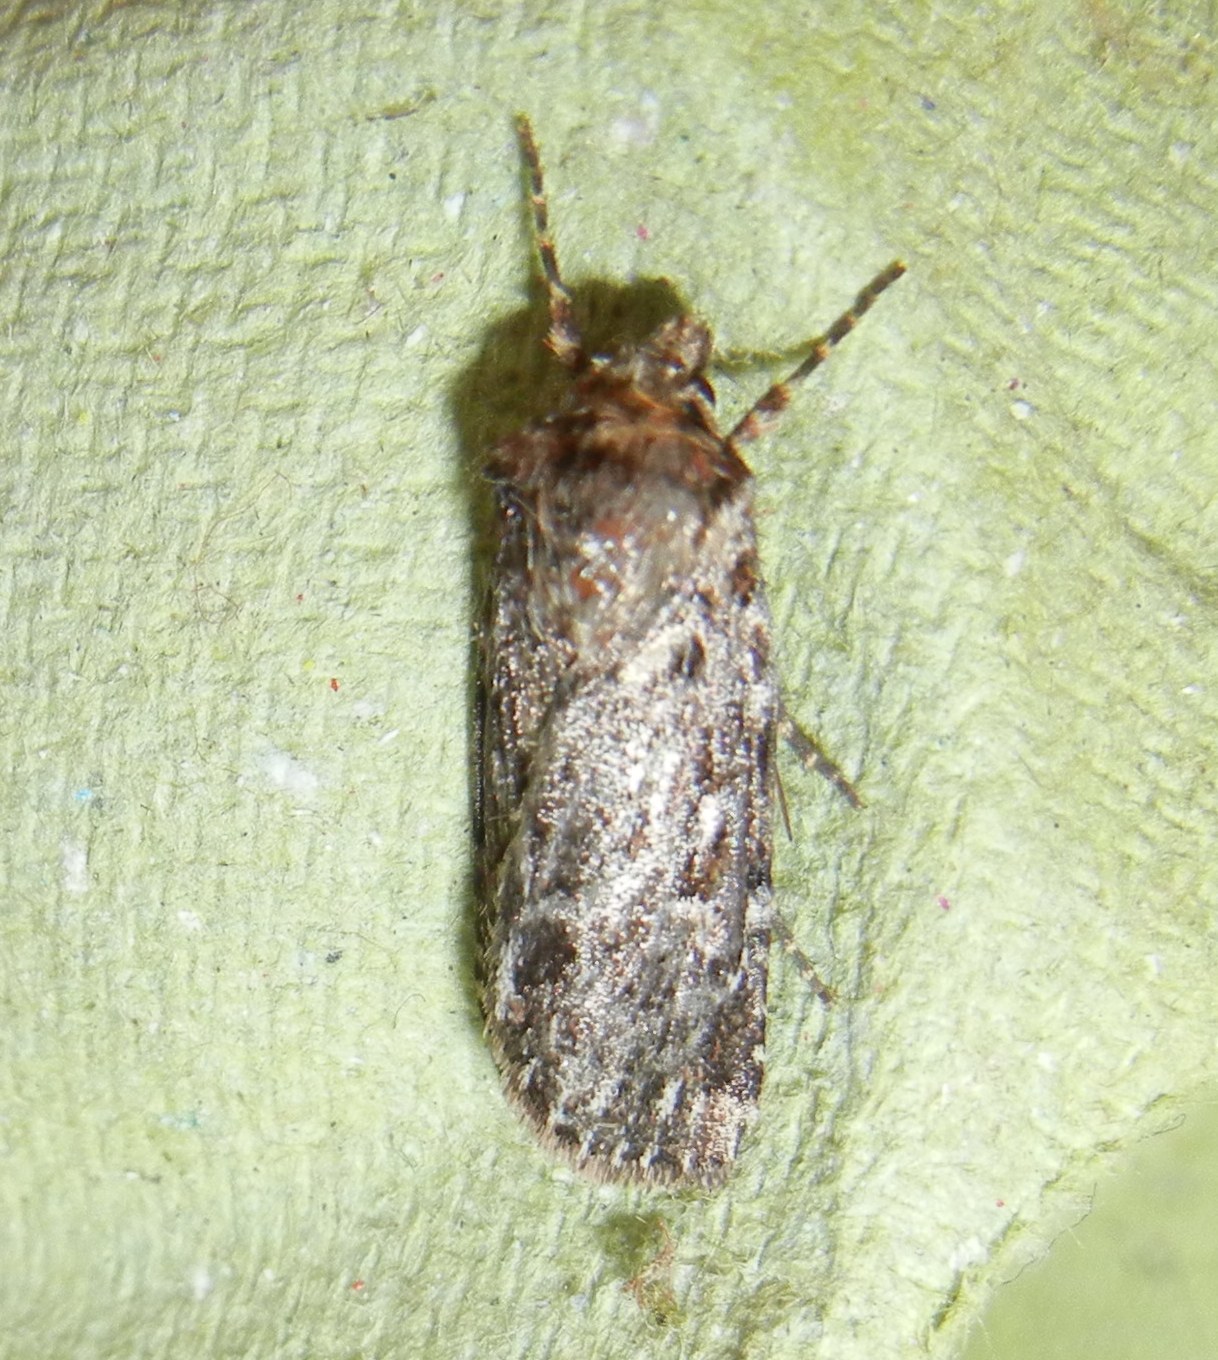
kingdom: Animalia
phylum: Arthropoda
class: Insecta
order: Lepidoptera
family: Noctuidae
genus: Lycophotia
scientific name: Lycophotia porphyrea
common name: True lover's knot
